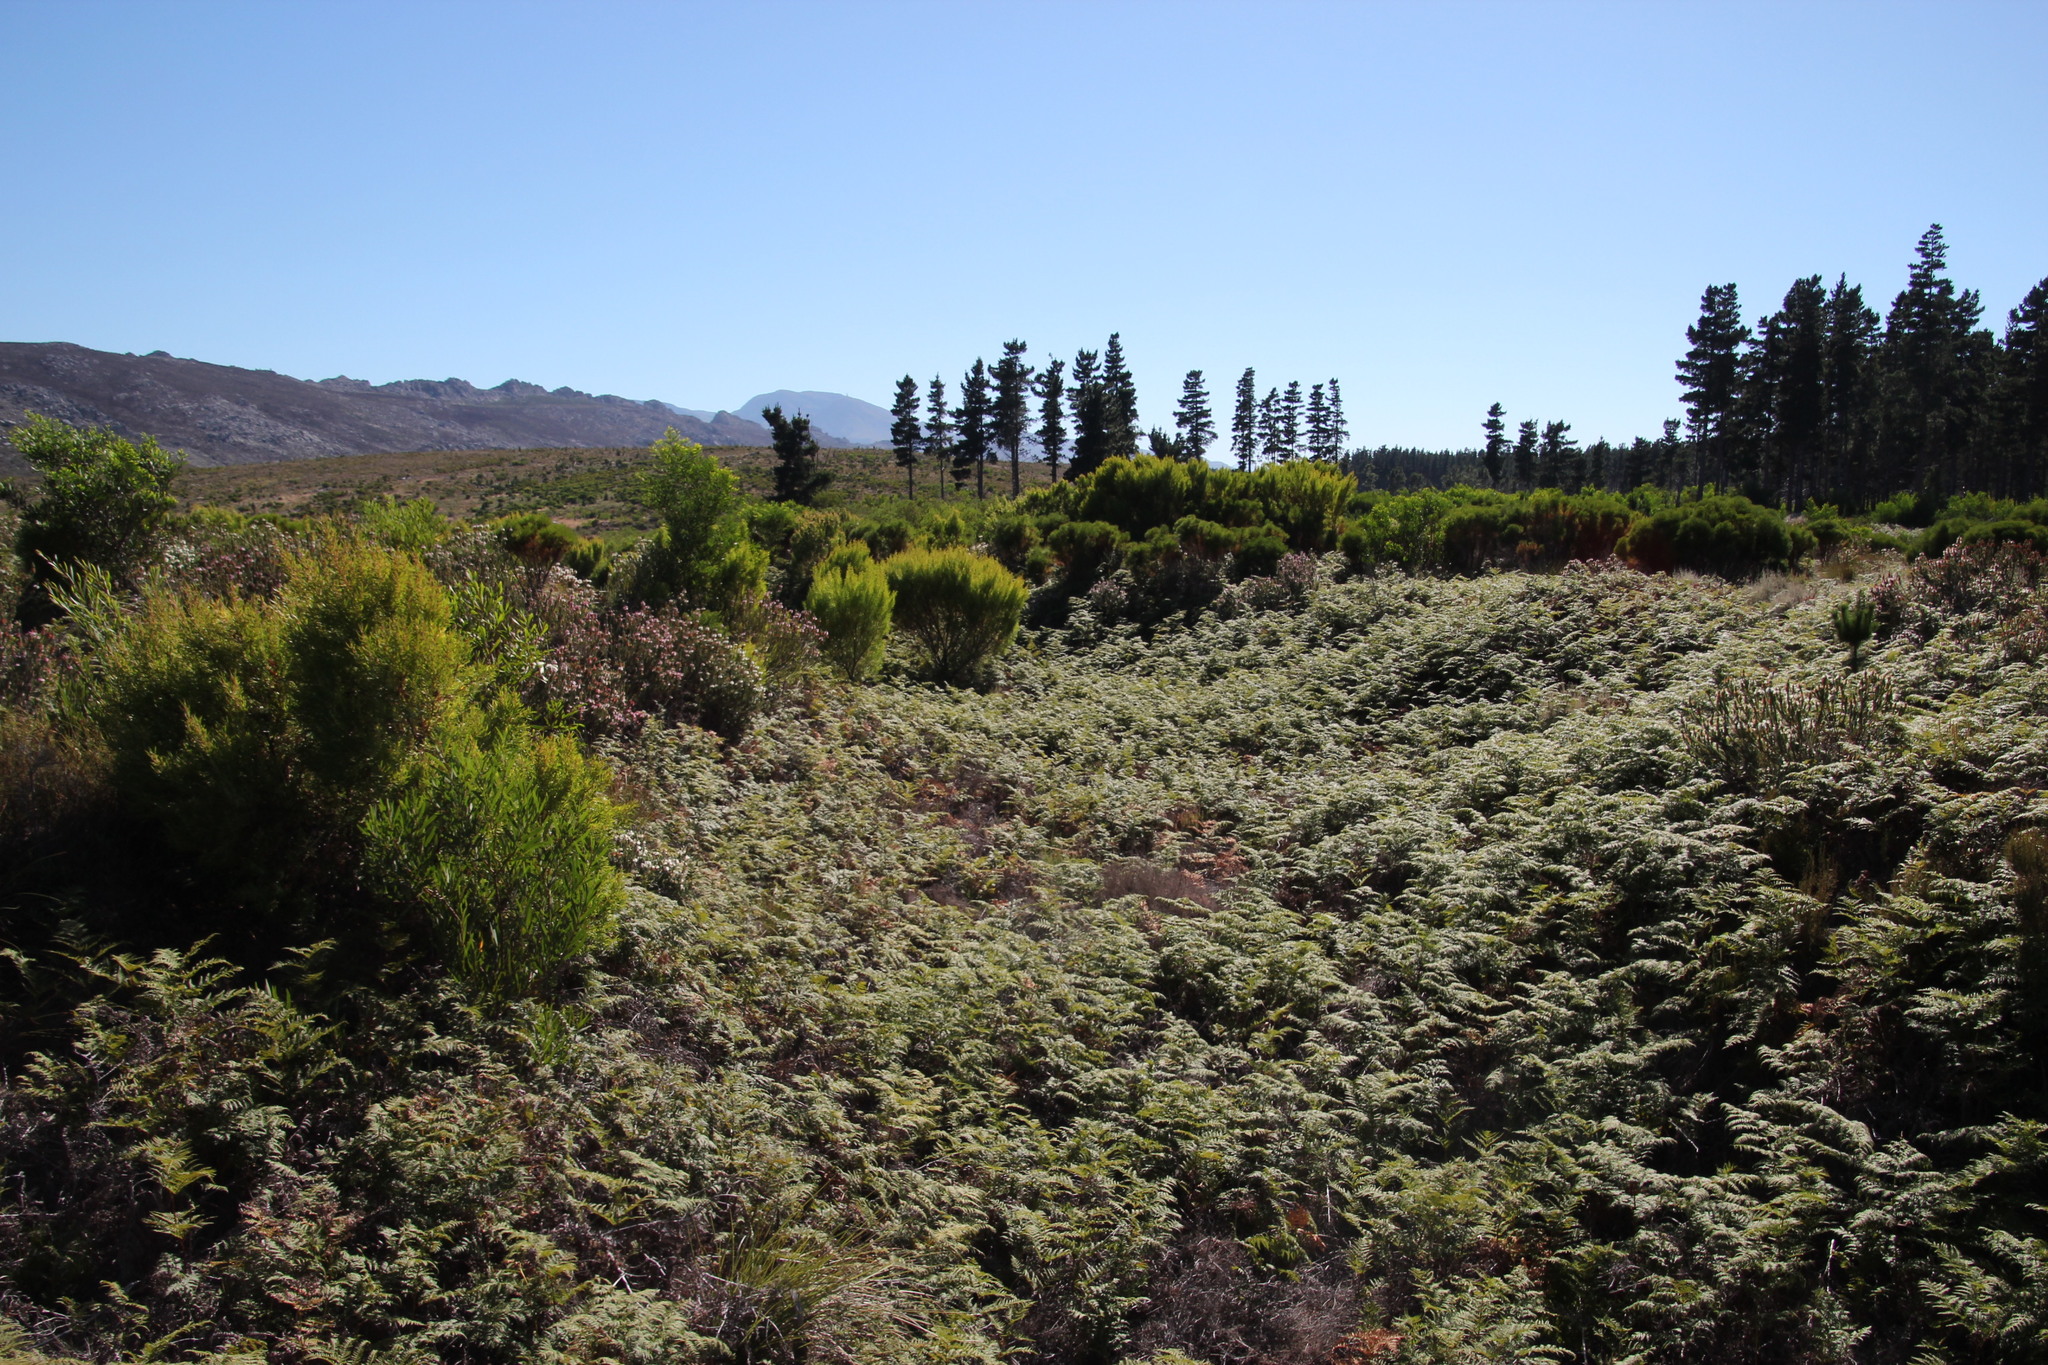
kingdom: Plantae
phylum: Tracheophyta
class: Magnoliopsida
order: Proteales
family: Proteaceae
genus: Leucadendron
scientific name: Leucadendron salicifolium
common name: Common stream conebush
